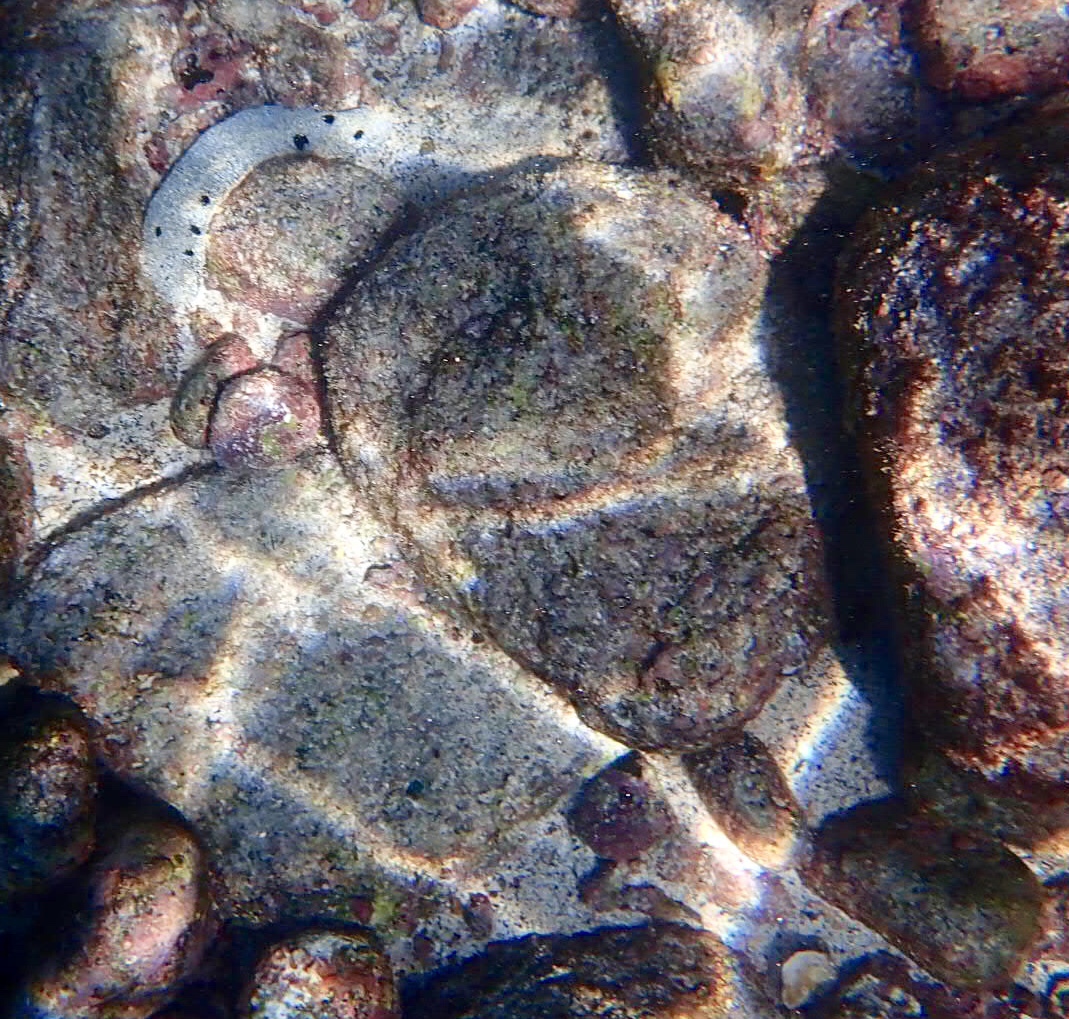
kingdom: Animalia
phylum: Echinodermata
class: Holothuroidea
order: Holothuriida
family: Holothuriidae
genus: Holothuria
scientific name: Holothuria atra
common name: Lollyfish
